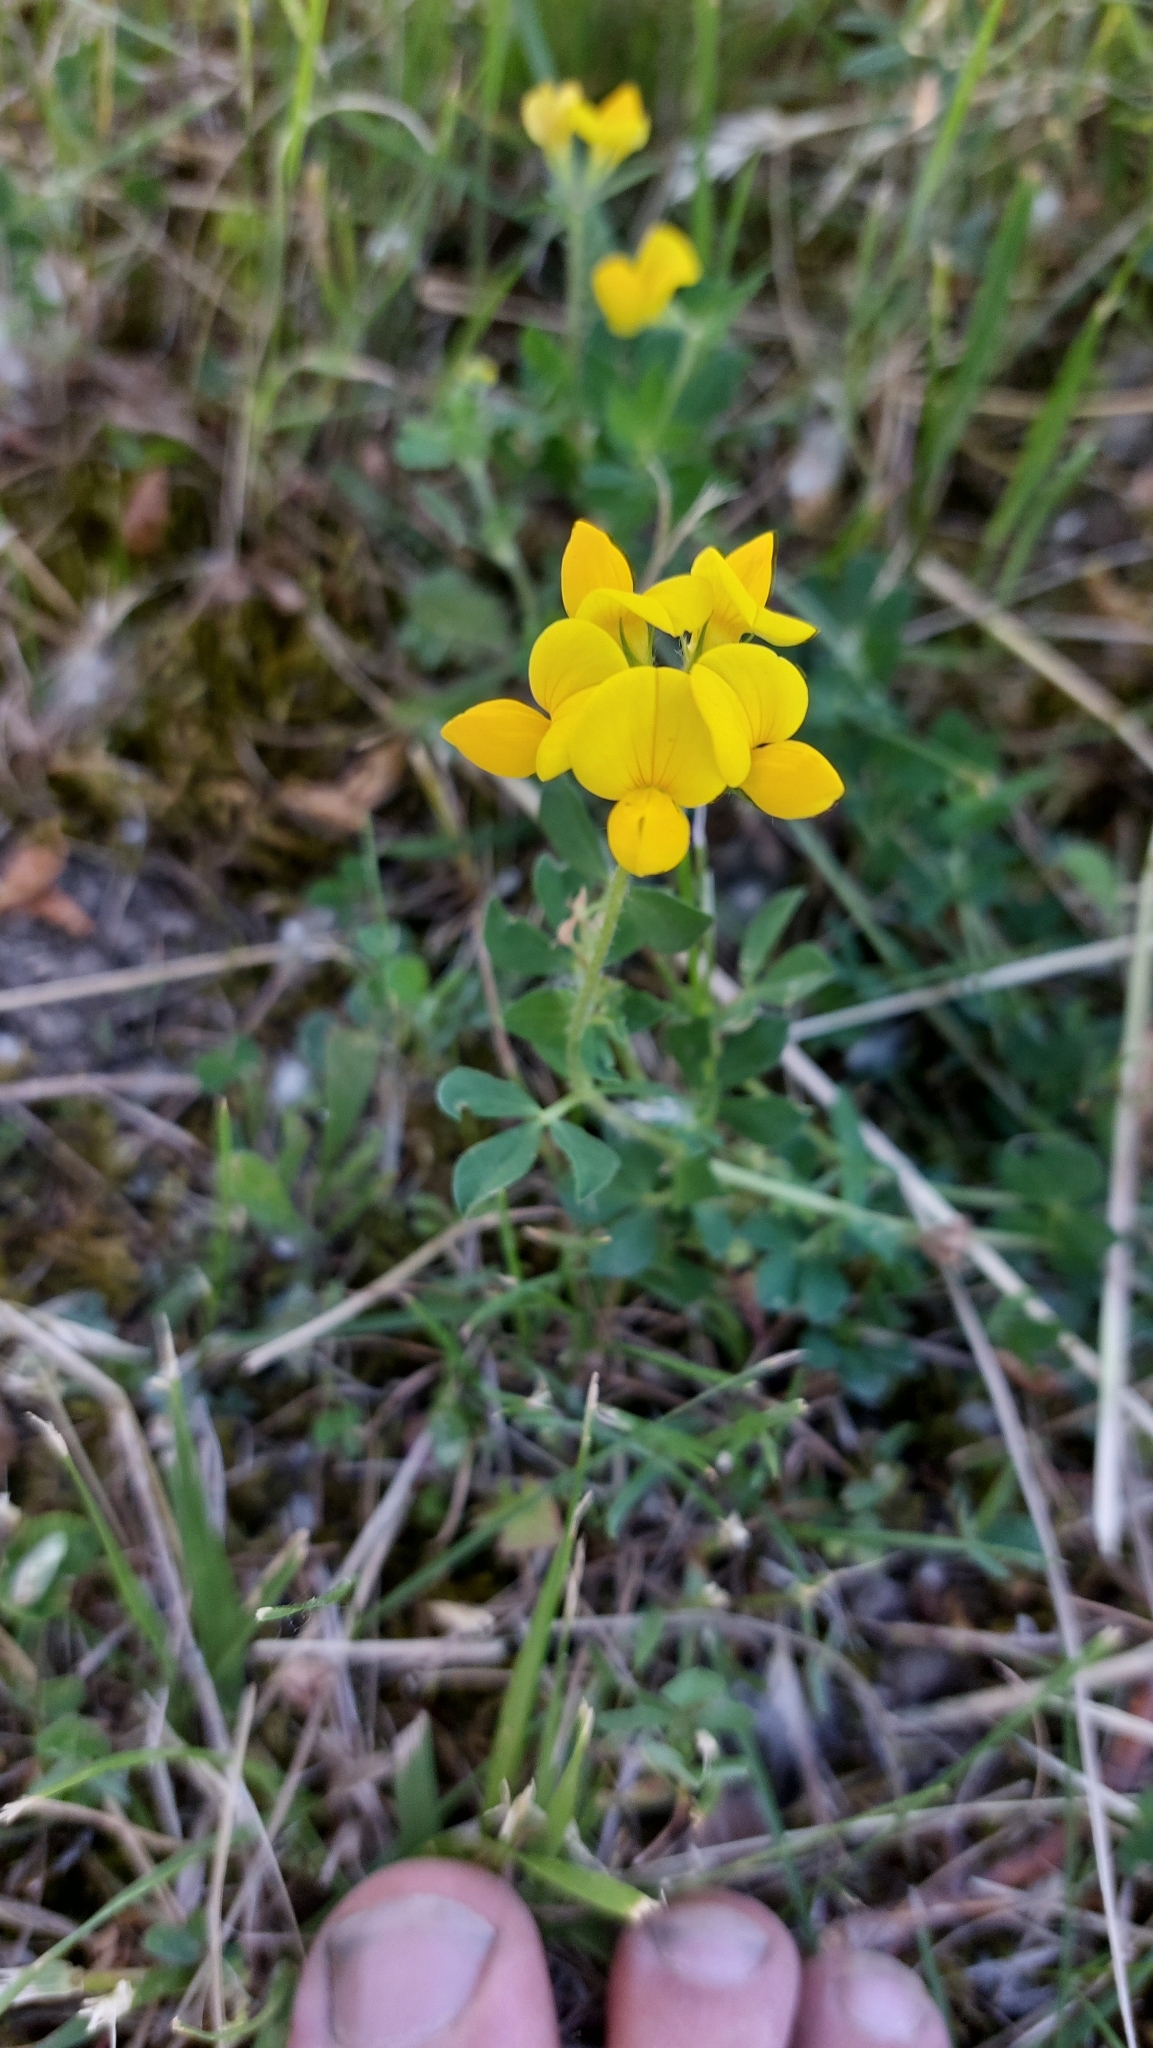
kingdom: Plantae
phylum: Tracheophyta
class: Magnoliopsida
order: Fabales
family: Fabaceae
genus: Lotus
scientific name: Lotus corniculatus
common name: Common bird's-foot-trefoil
